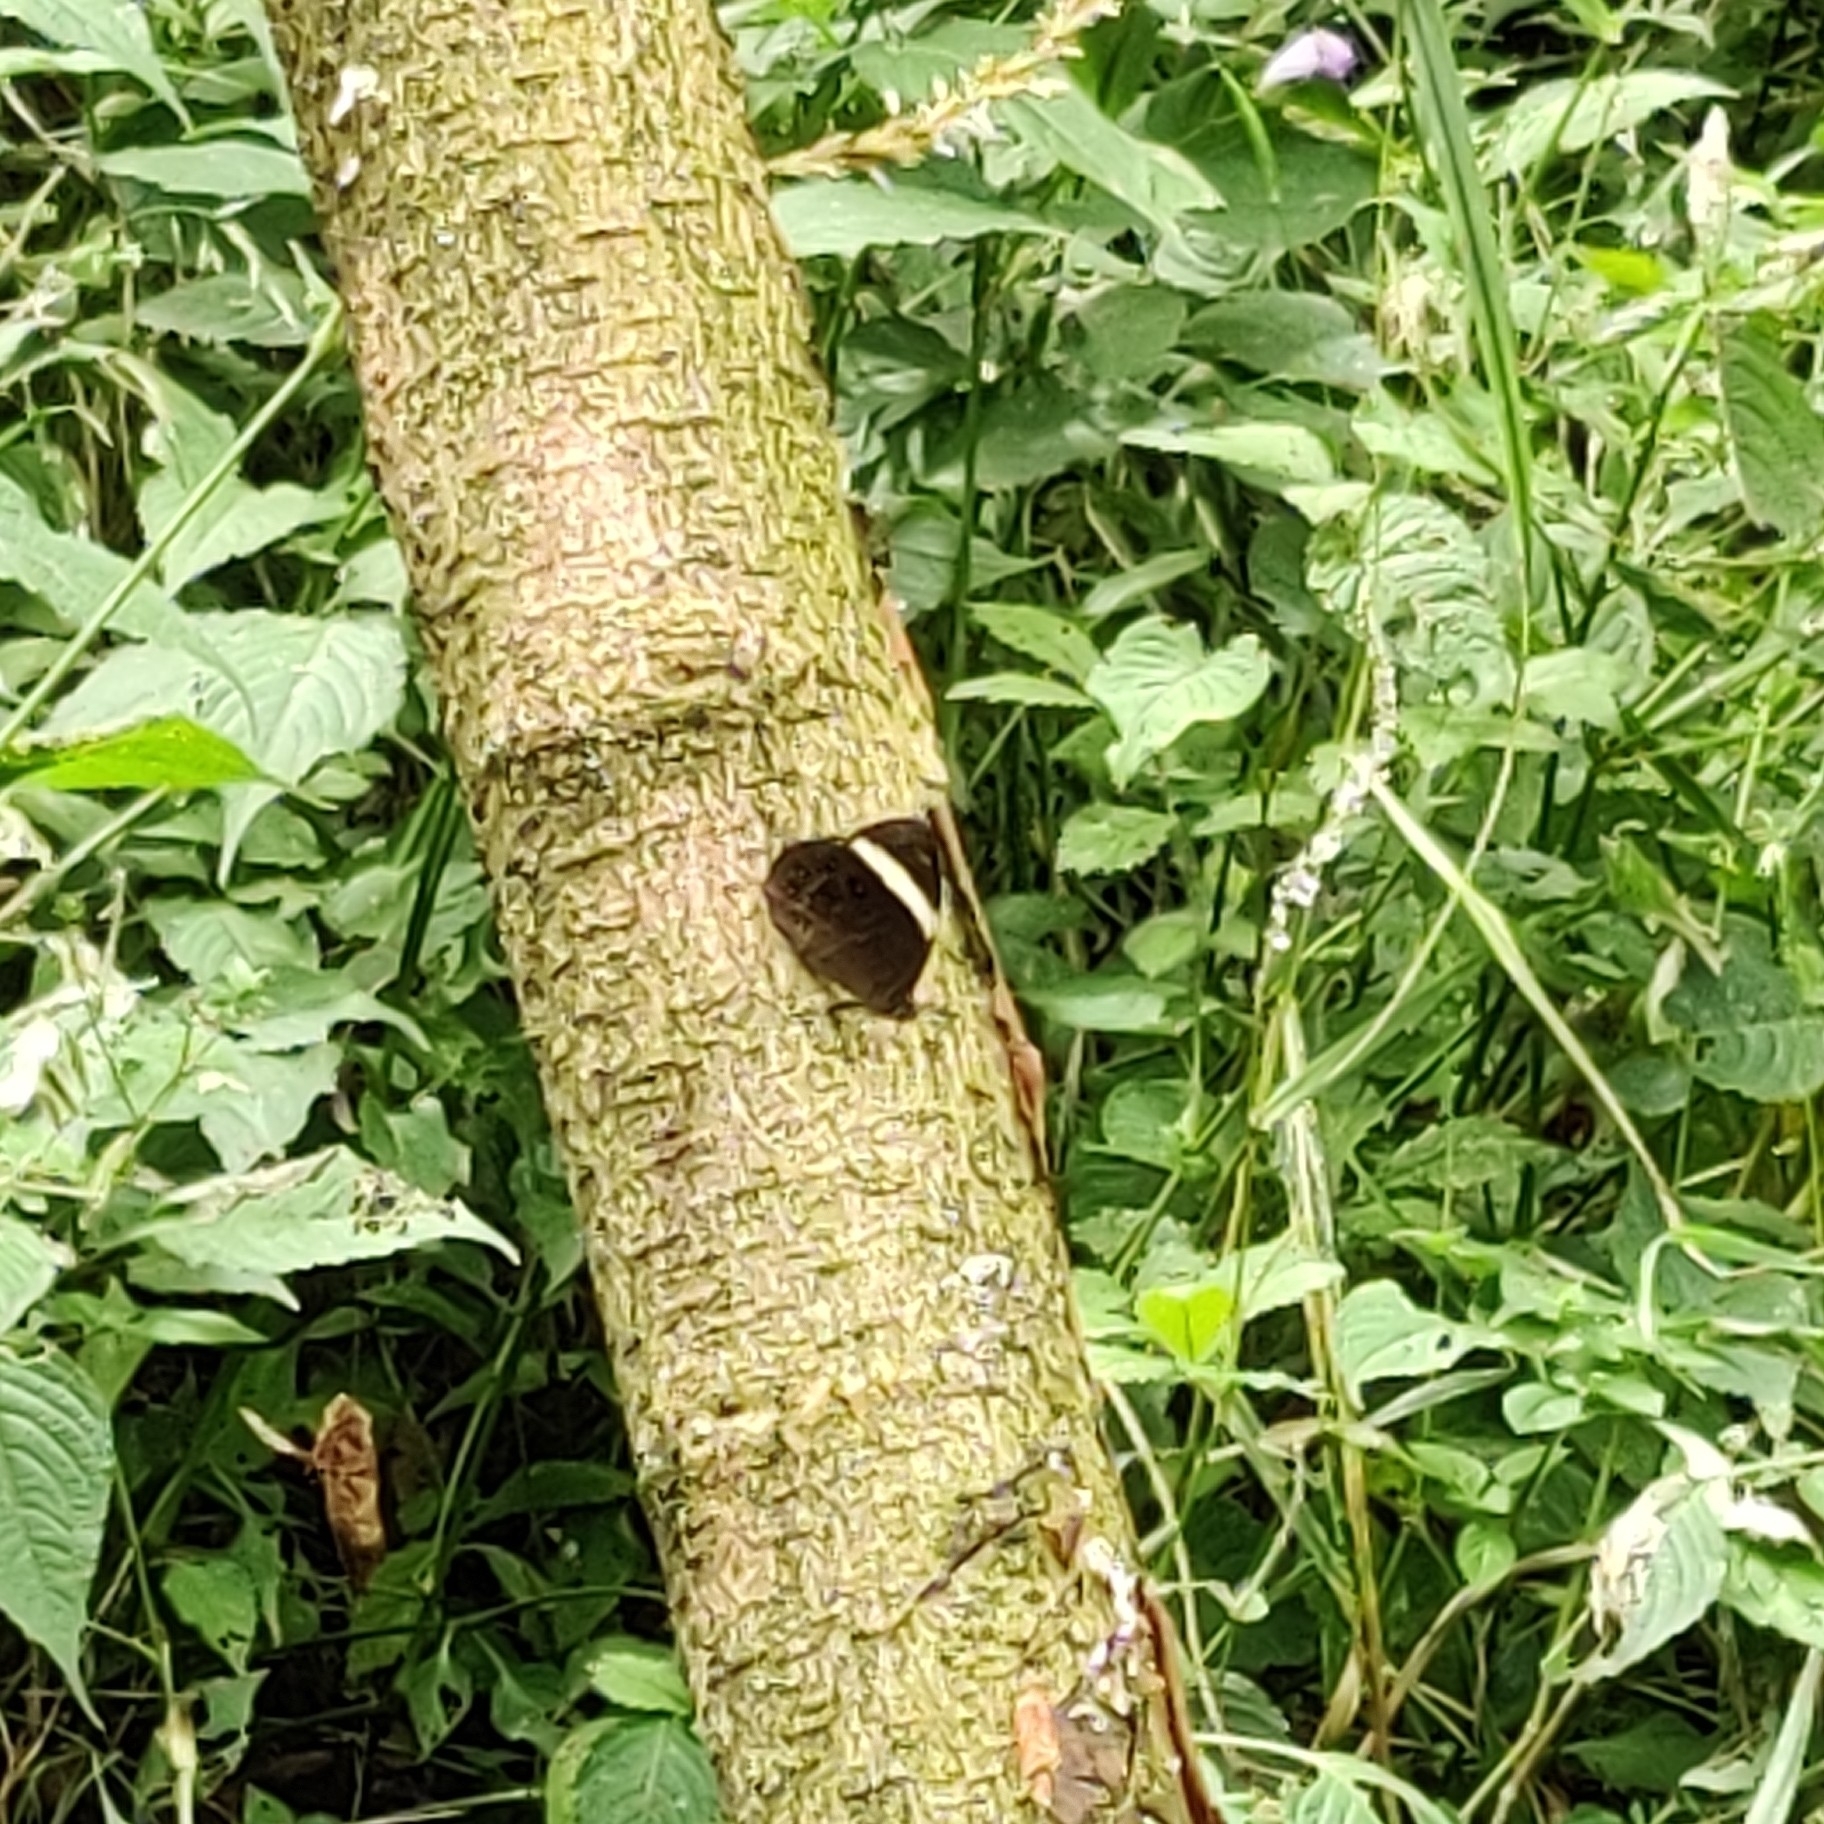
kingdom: Animalia
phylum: Arthropoda
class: Insecta
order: Lepidoptera
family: Nymphalidae
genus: Lethe
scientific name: Lethe verma
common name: Straight-banded treebrown
